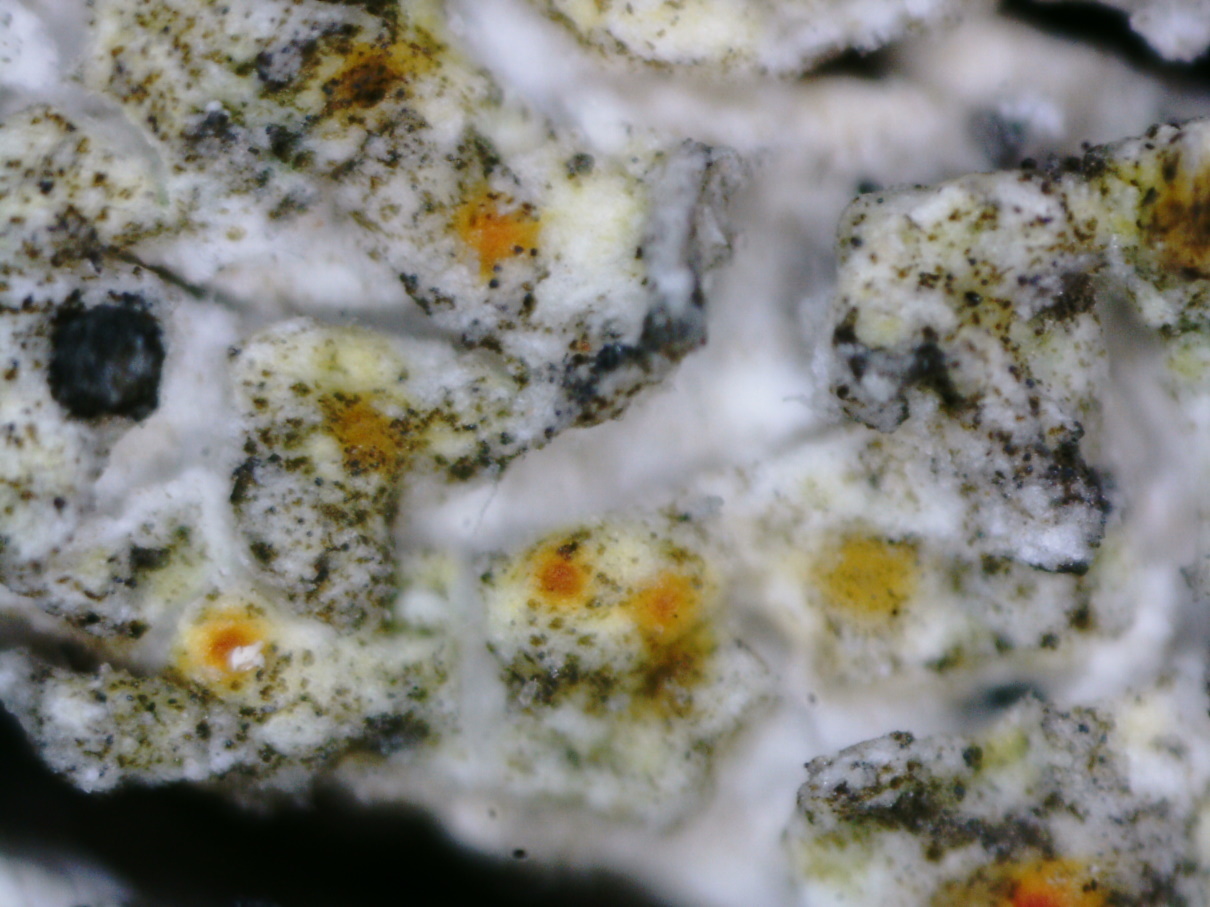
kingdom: Fungi
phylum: Ascomycota
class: Lecanoromycetes
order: Teloschistales
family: Teloschistaceae
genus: Opeltia
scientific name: Opeltia flavorubescens
